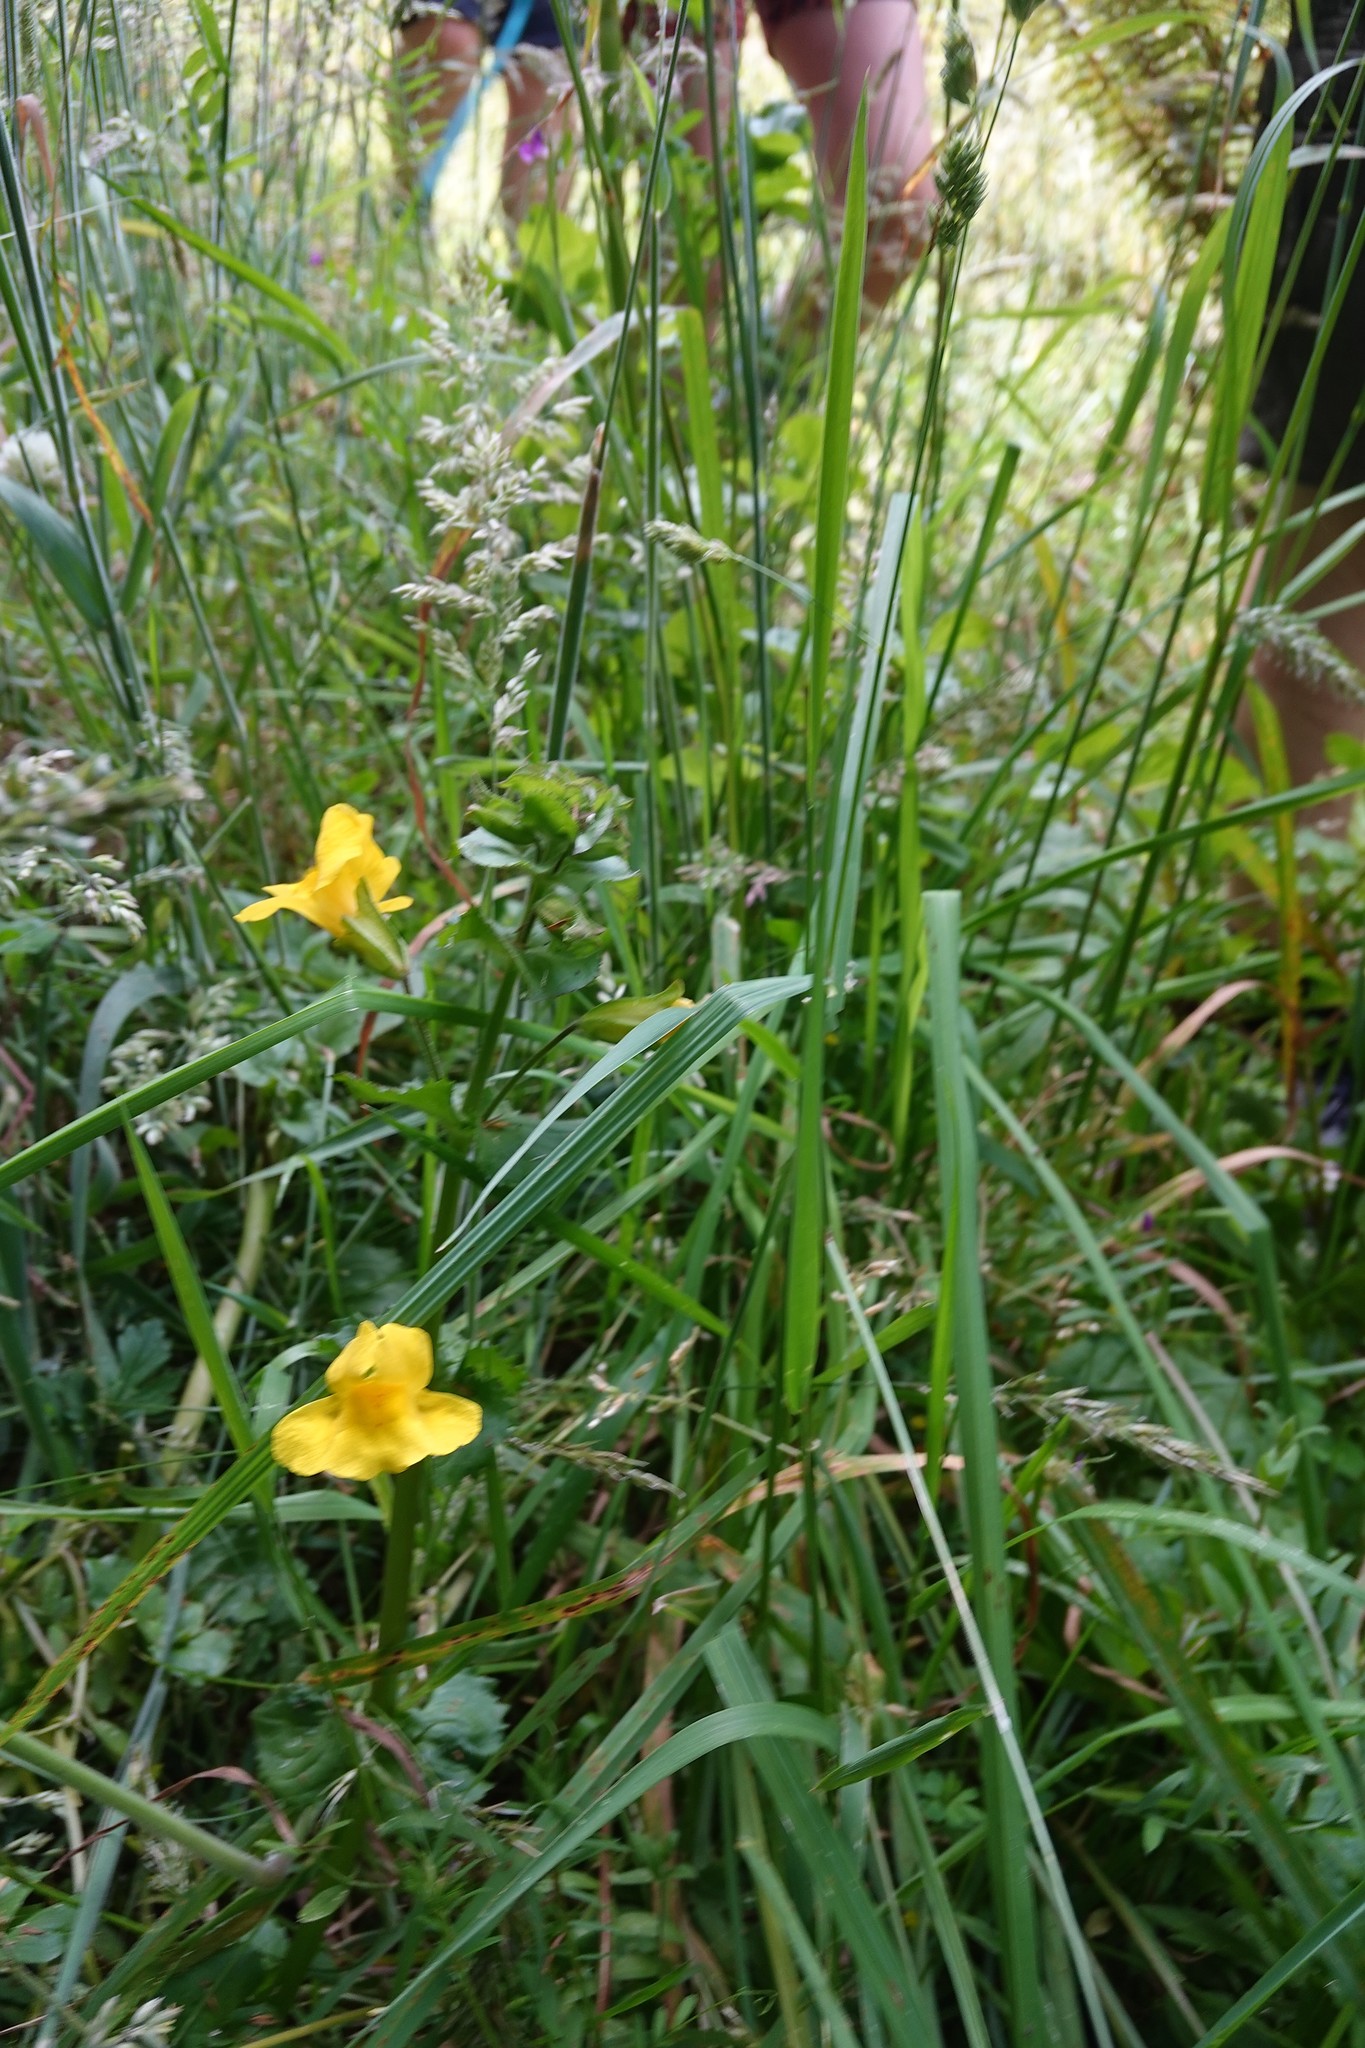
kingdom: Plantae
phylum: Tracheophyta
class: Magnoliopsida
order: Lamiales
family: Phrymaceae
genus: Erythranthe
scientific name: Erythranthe guttata
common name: Monkeyflower
